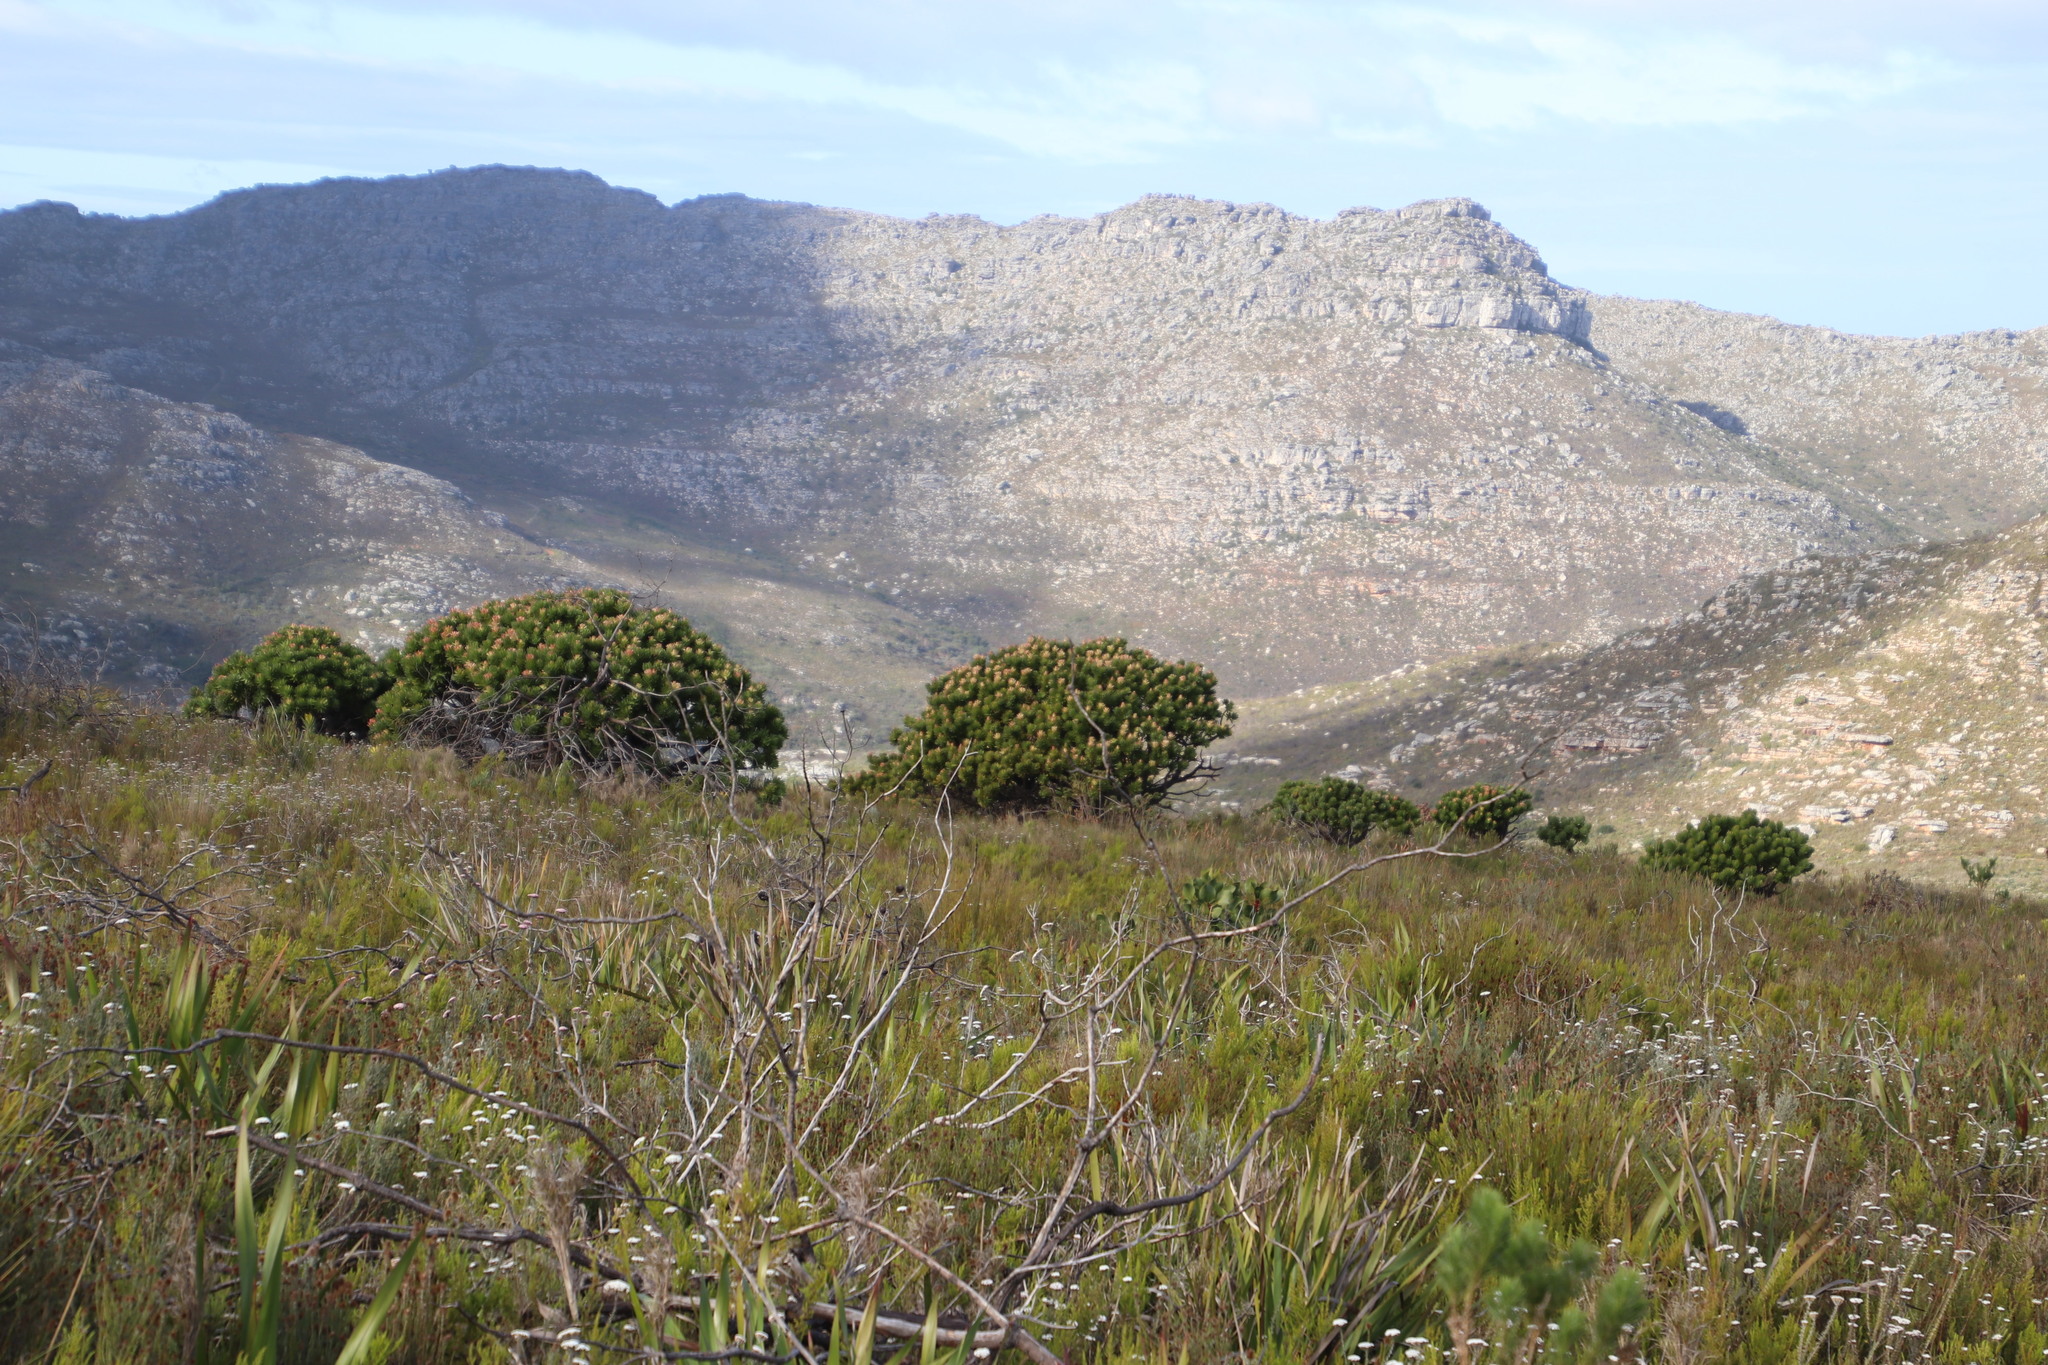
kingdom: Plantae
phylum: Tracheophyta
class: Magnoliopsida
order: Proteales
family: Proteaceae
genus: Mimetes
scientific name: Mimetes fimbriifolius
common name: Fringed bottlebrush
